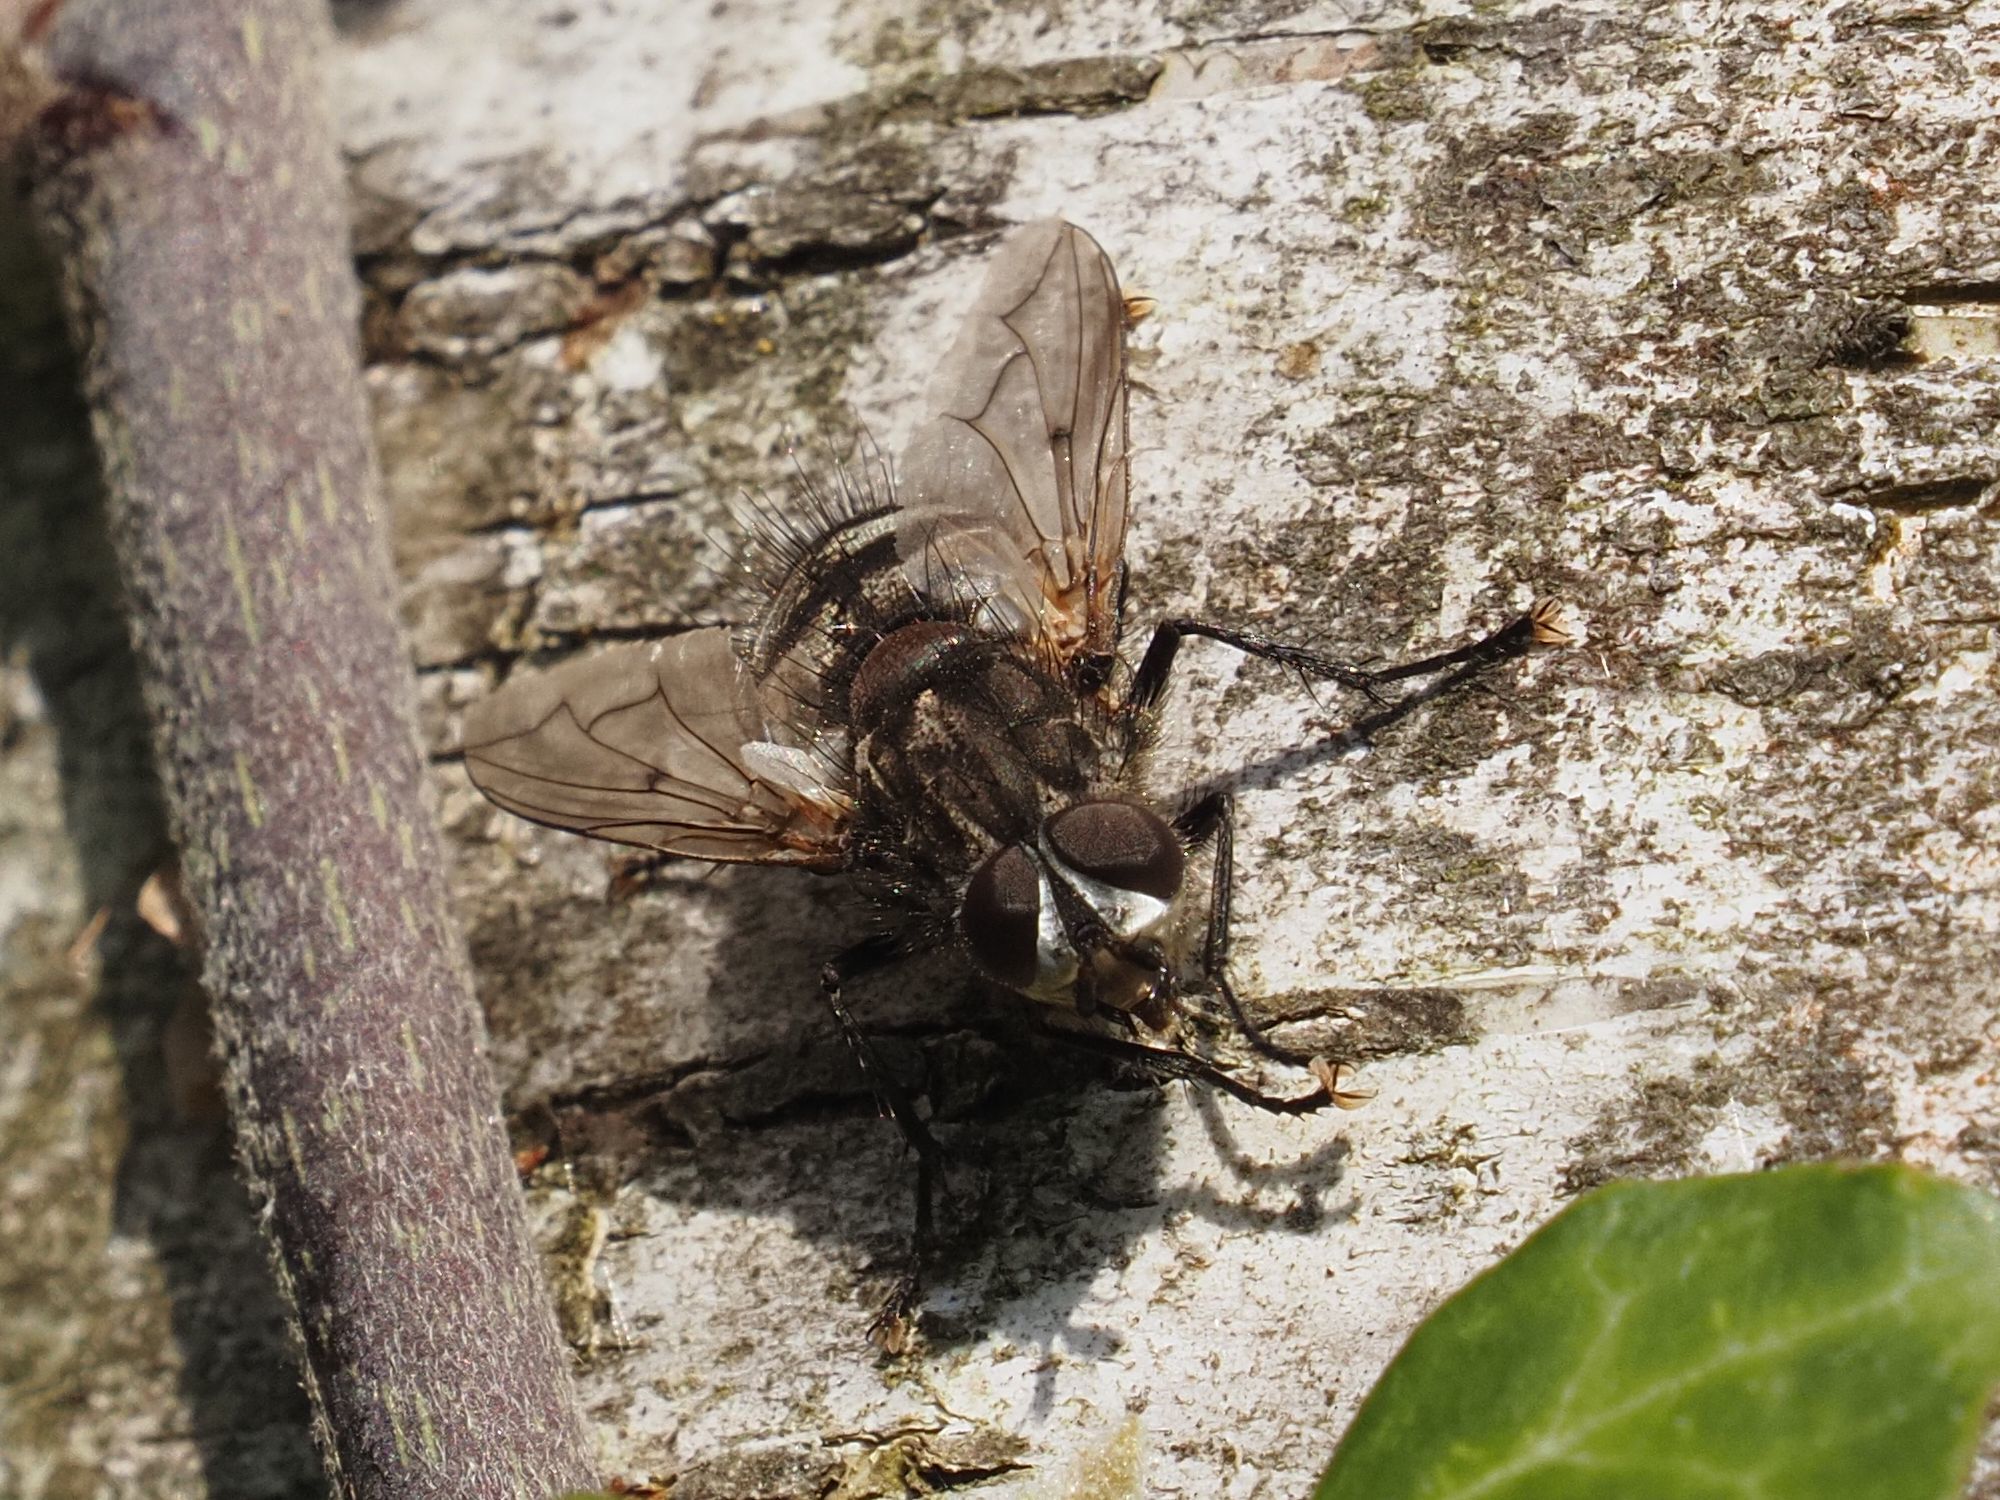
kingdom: Animalia
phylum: Arthropoda
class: Insecta
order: Diptera
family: Tachinidae
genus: Panzeria
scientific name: Panzeria puparum
